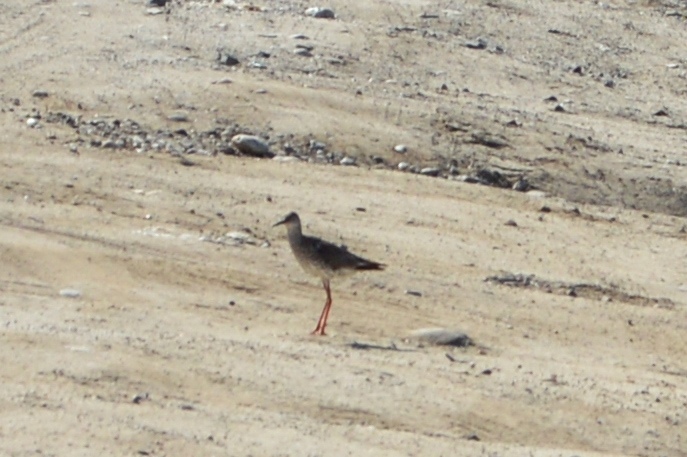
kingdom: Animalia
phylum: Chordata
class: Aves
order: Charadriiformes
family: Scolopacidae
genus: Tringa
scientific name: Tringa totanus
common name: Common redshank
